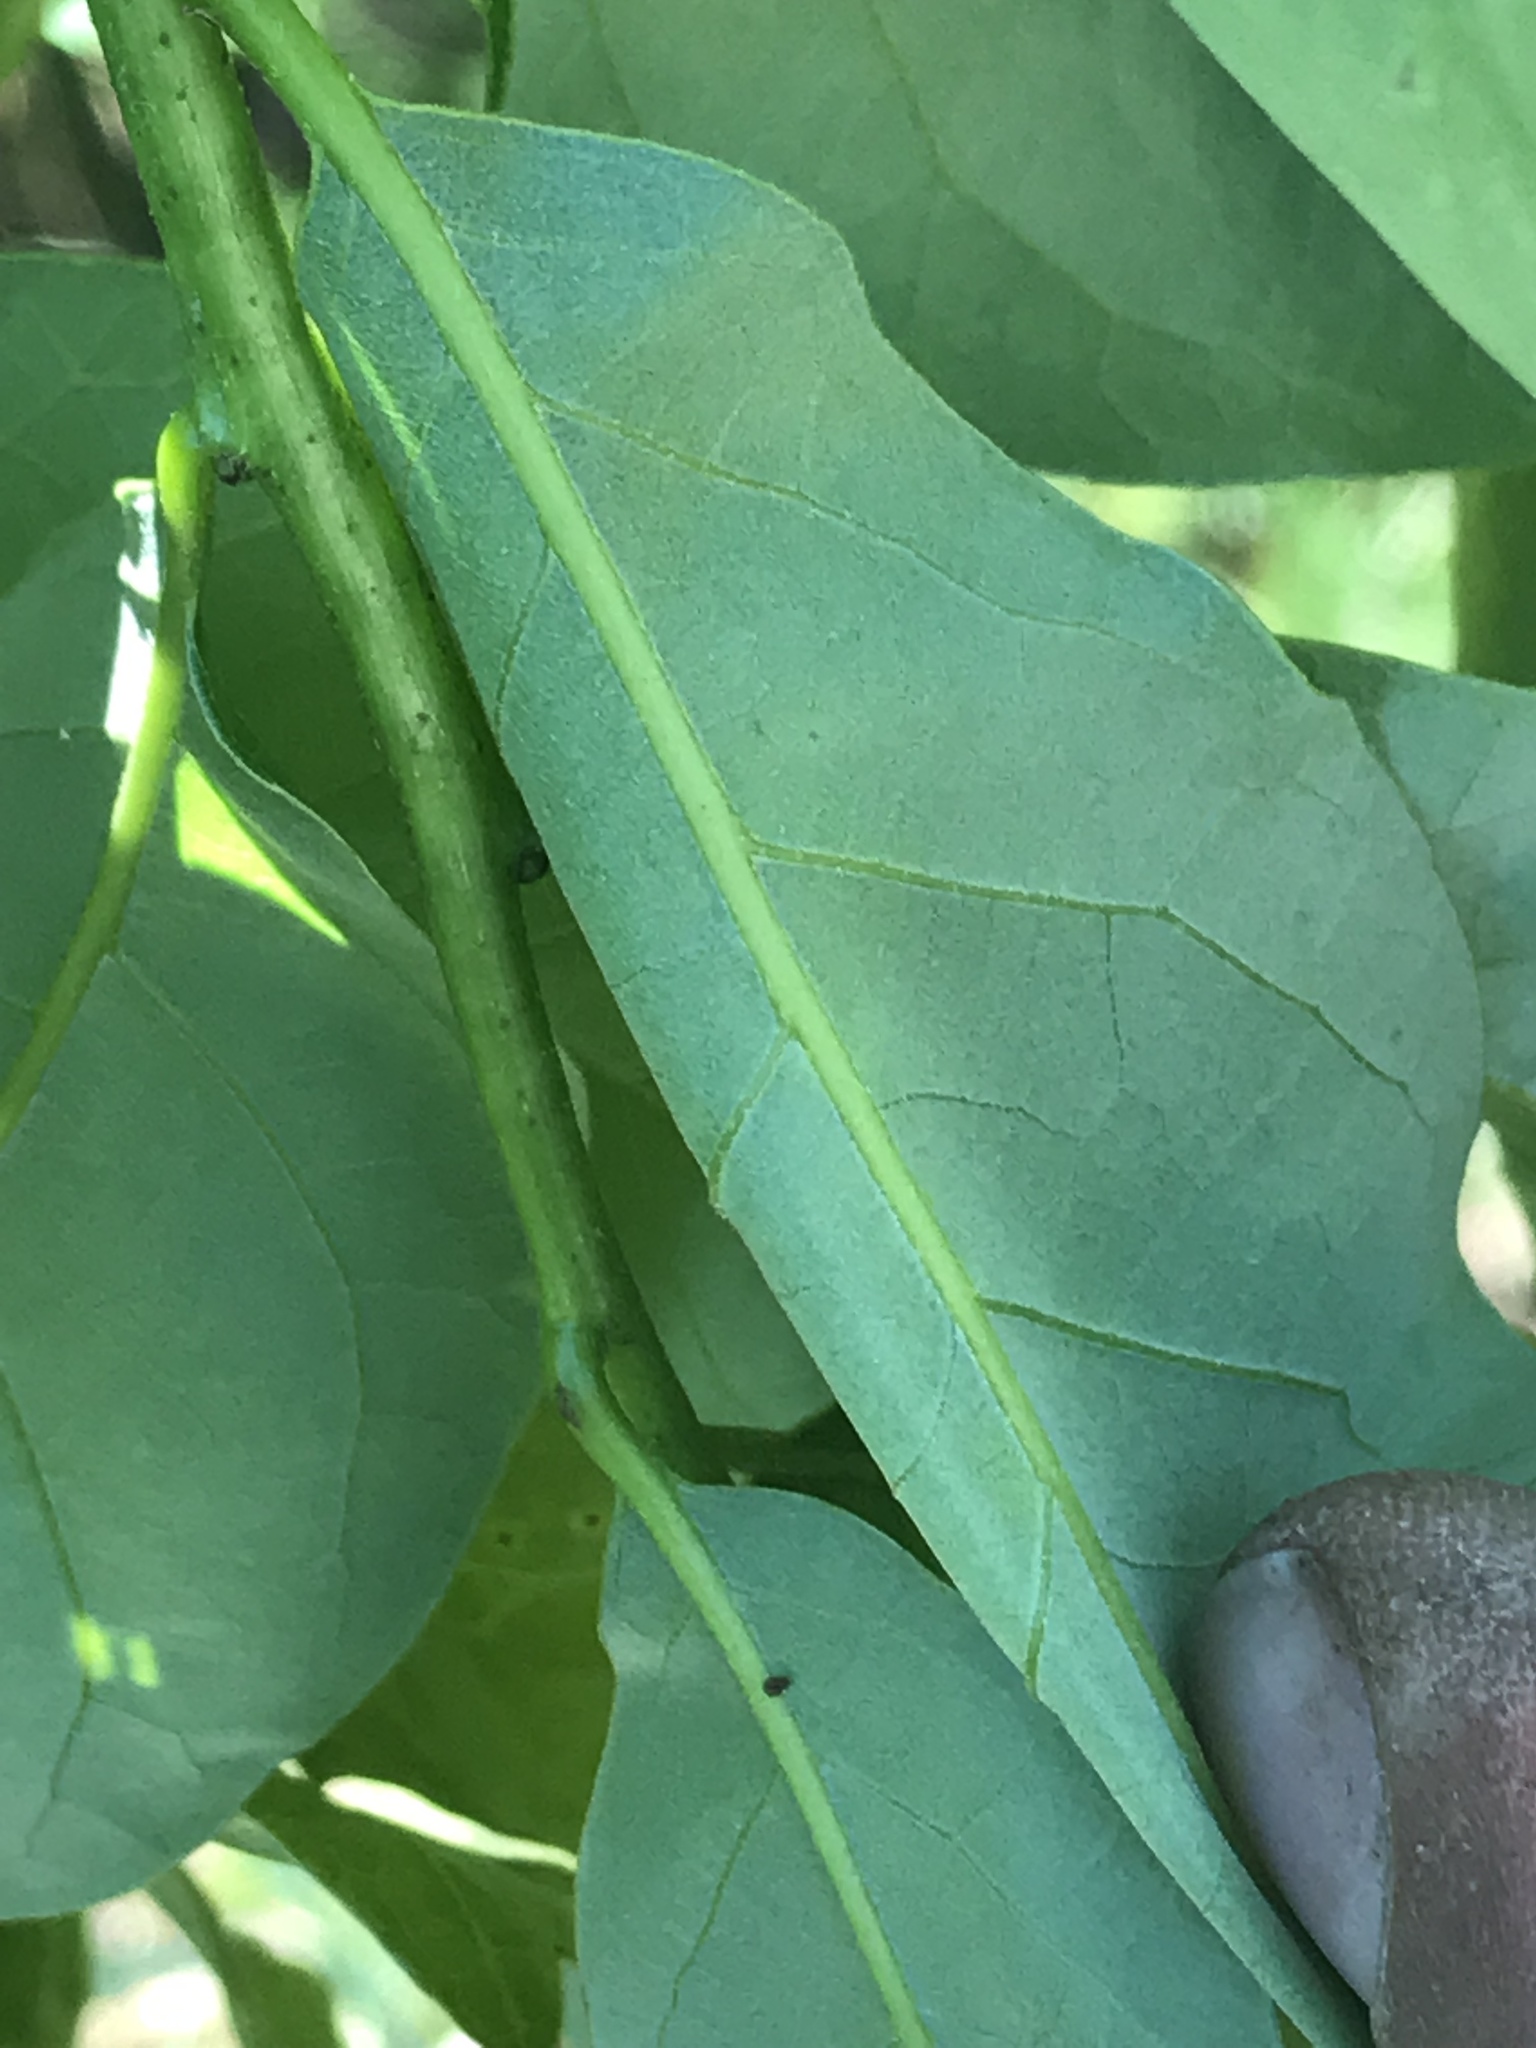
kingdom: Plantae
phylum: Tracheophyta
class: Magnoliopsida
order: Fagales
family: Fagaceae
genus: Quercus
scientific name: Quercus laurifolia
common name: Swamp laurel oak
